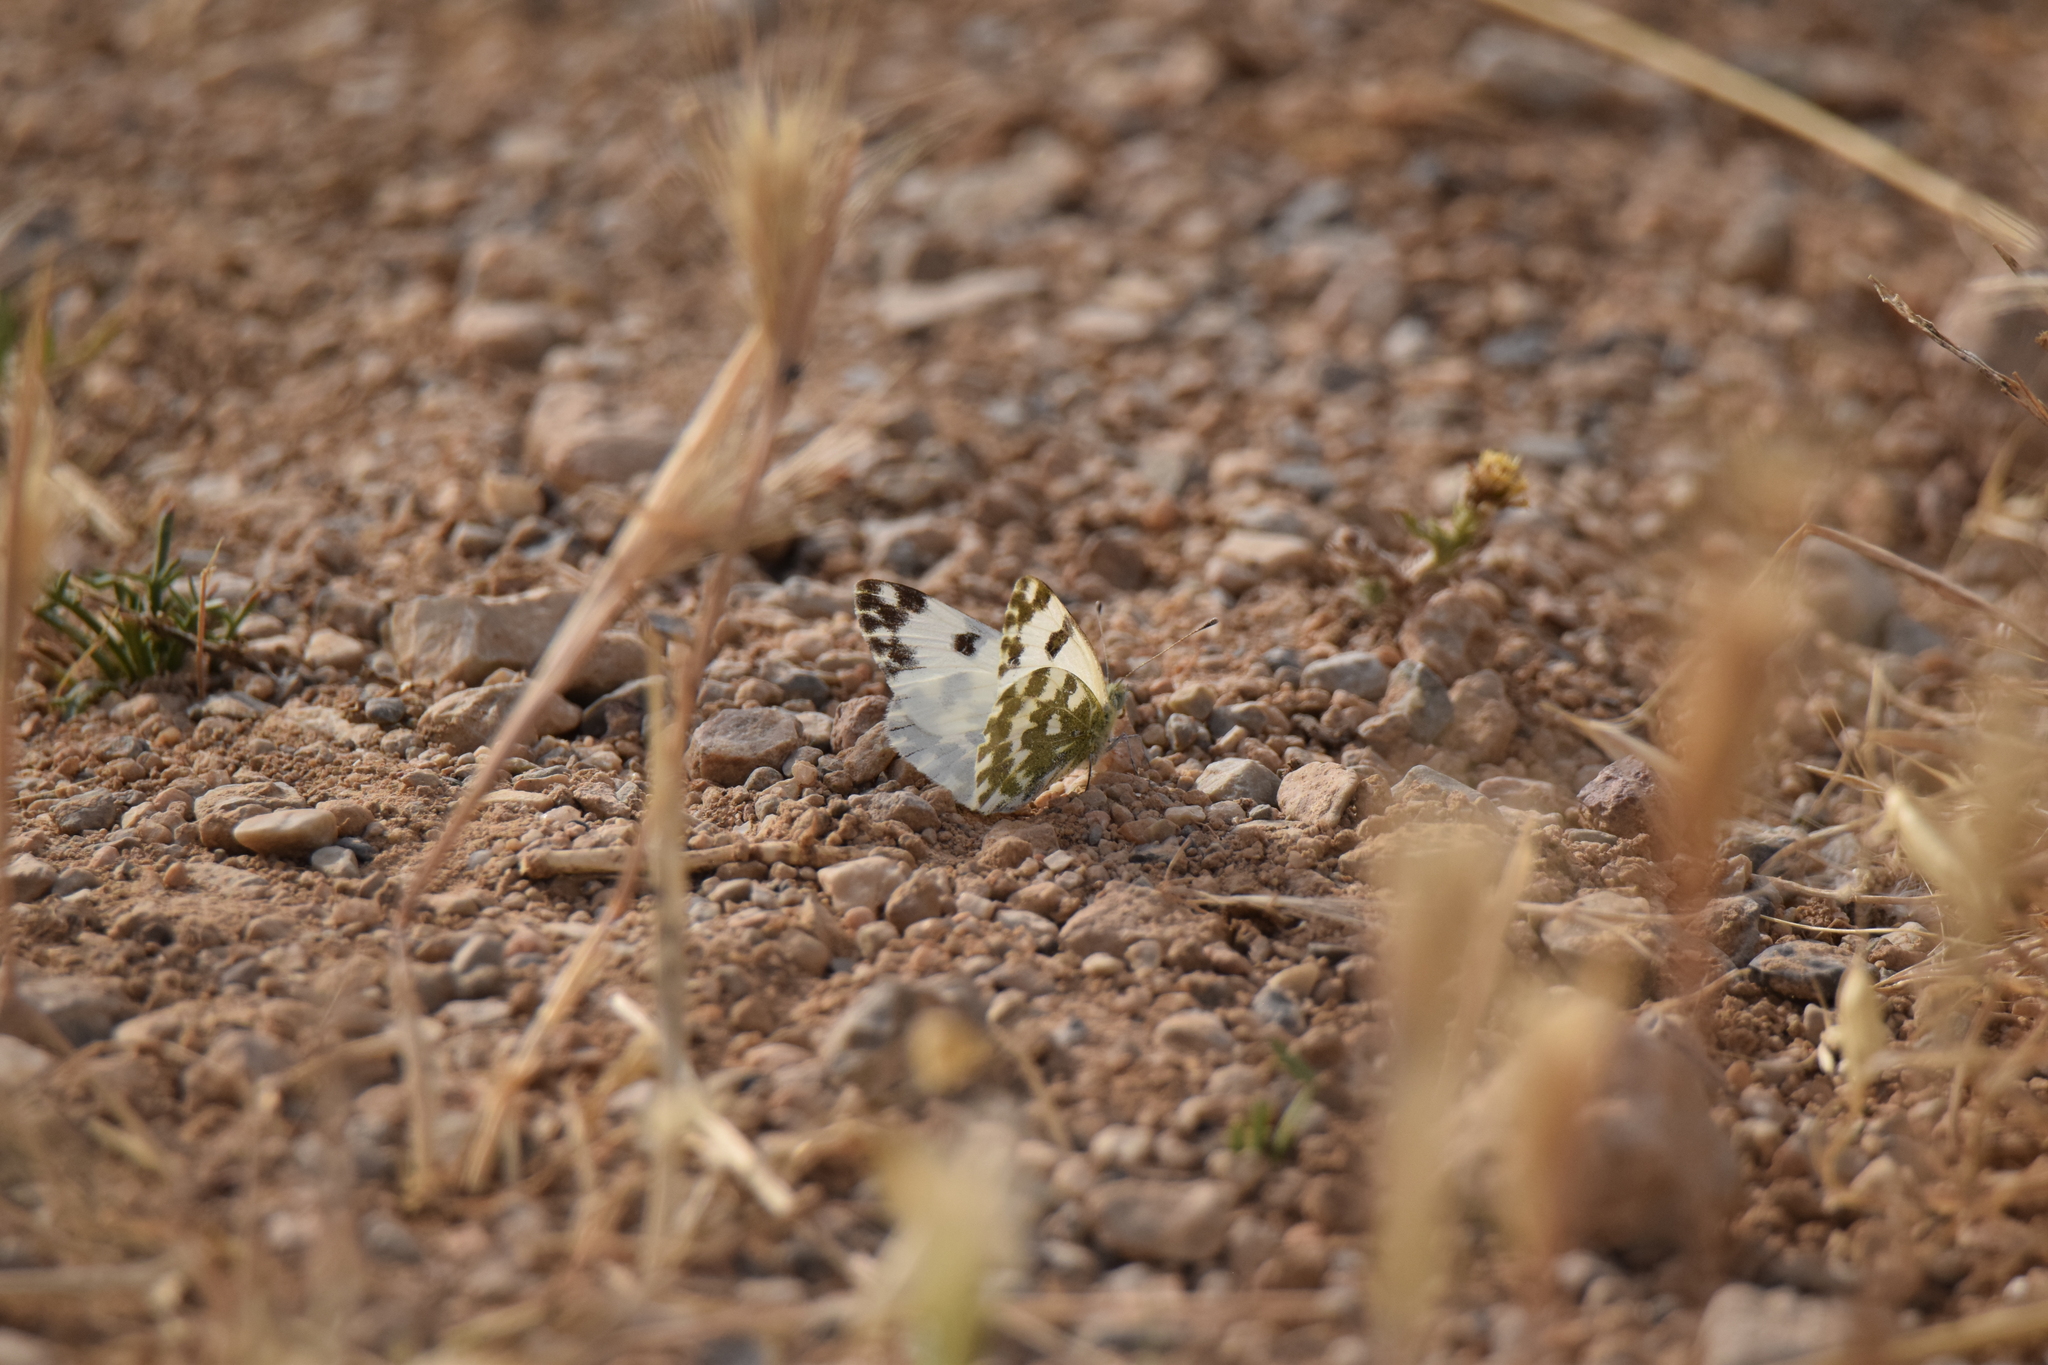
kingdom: Animalia
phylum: Arthropoda
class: Insecta
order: Lepidoptera
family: Pieridae
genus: Pontia
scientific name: Pontia daplidice
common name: Bath white
